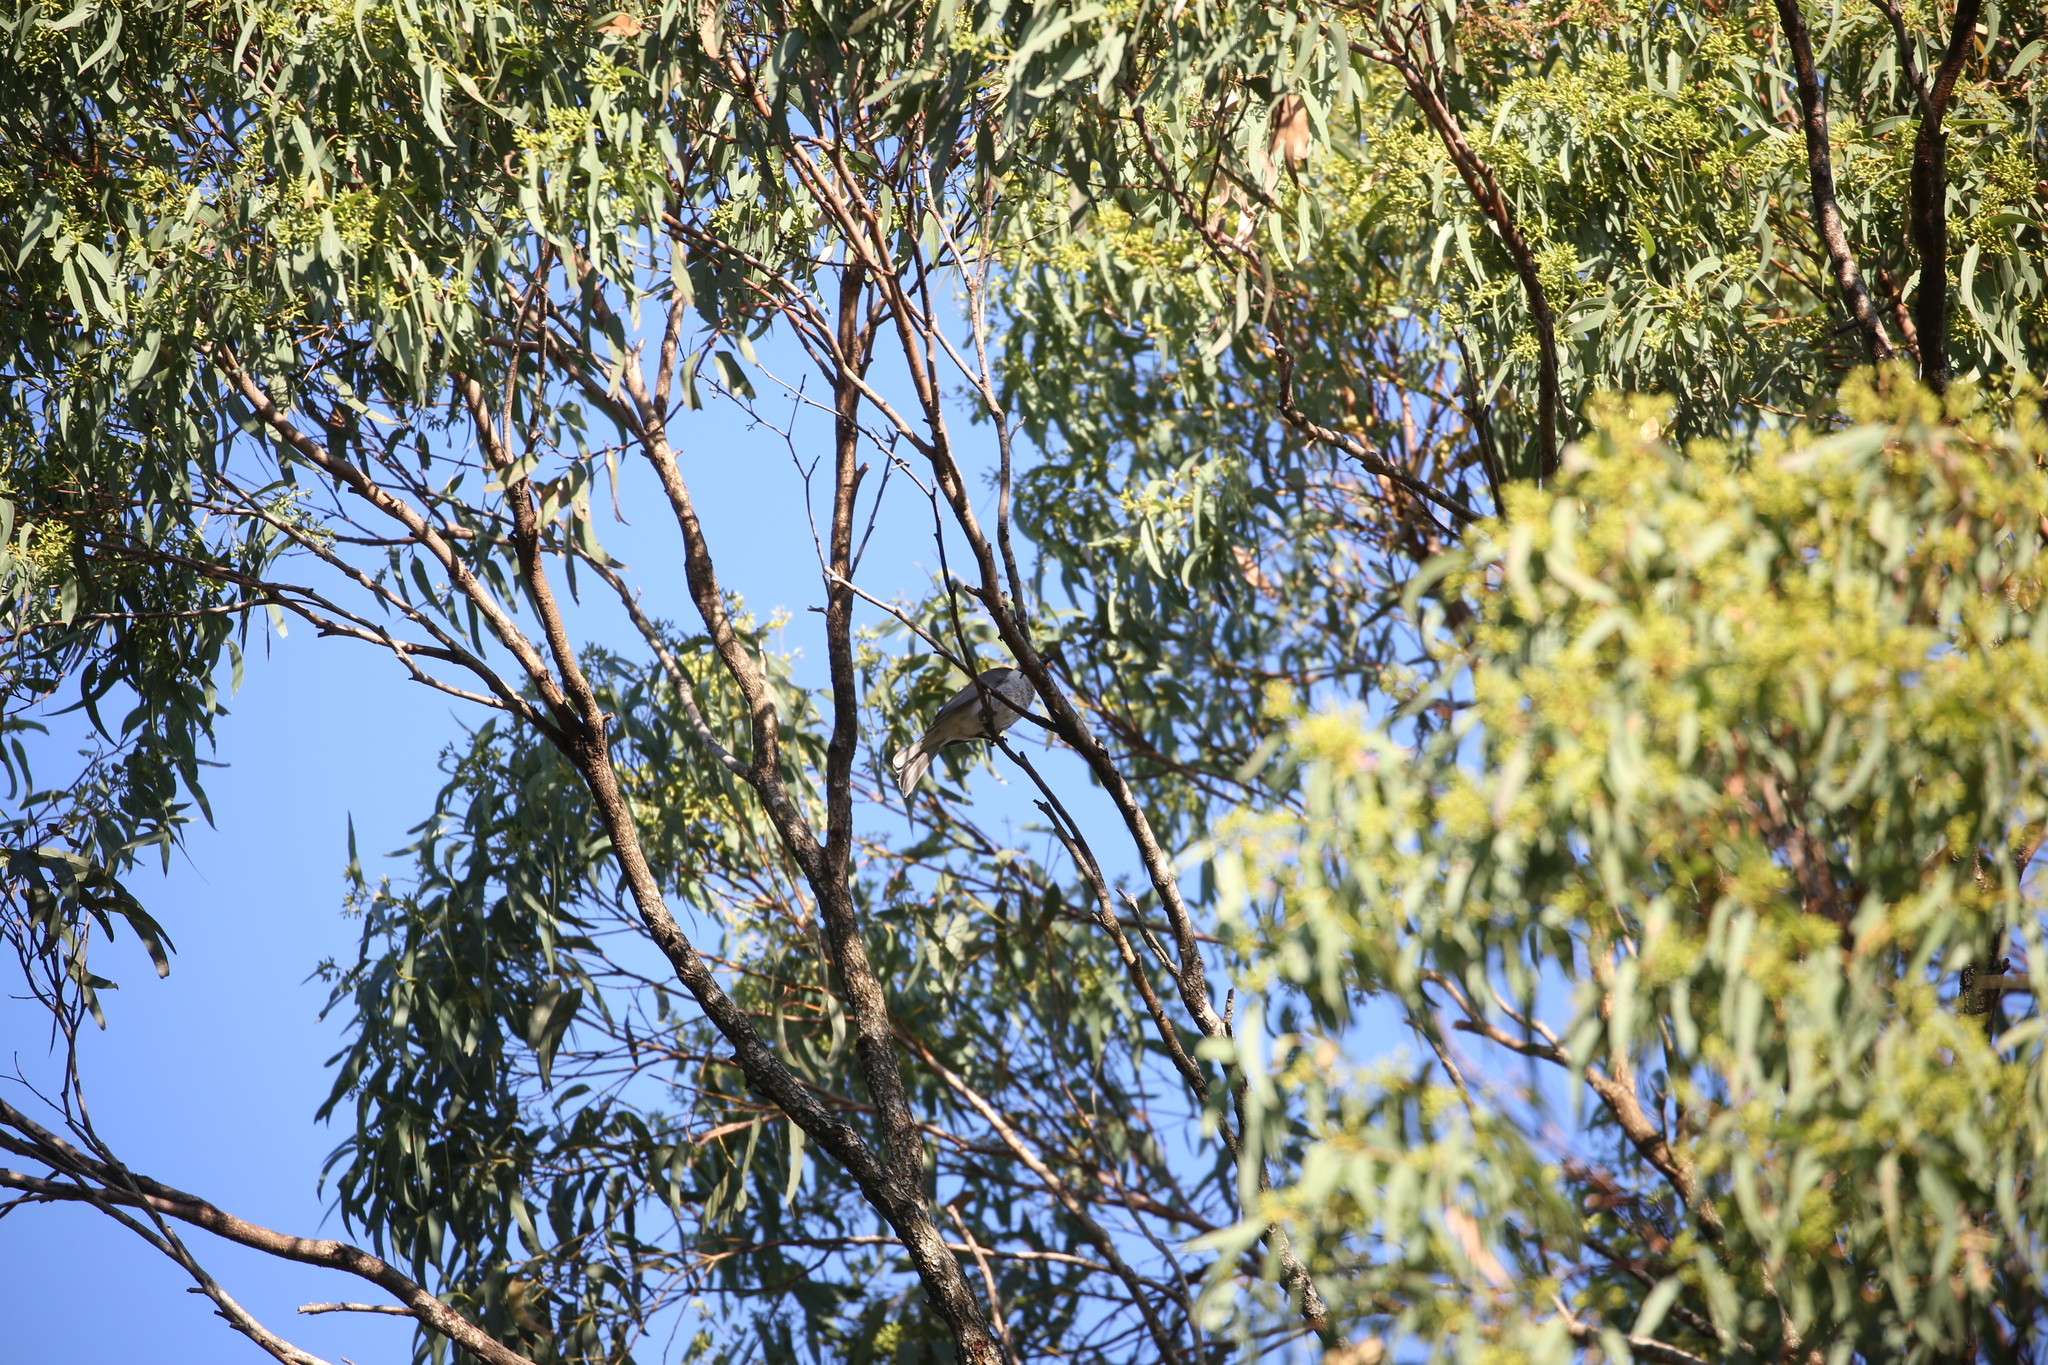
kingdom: Animalia
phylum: Chordata
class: Aves
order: Passeriformes
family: Meliphagidae
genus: Philemon
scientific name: Philemon corniculatus
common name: Noisy friarbird
